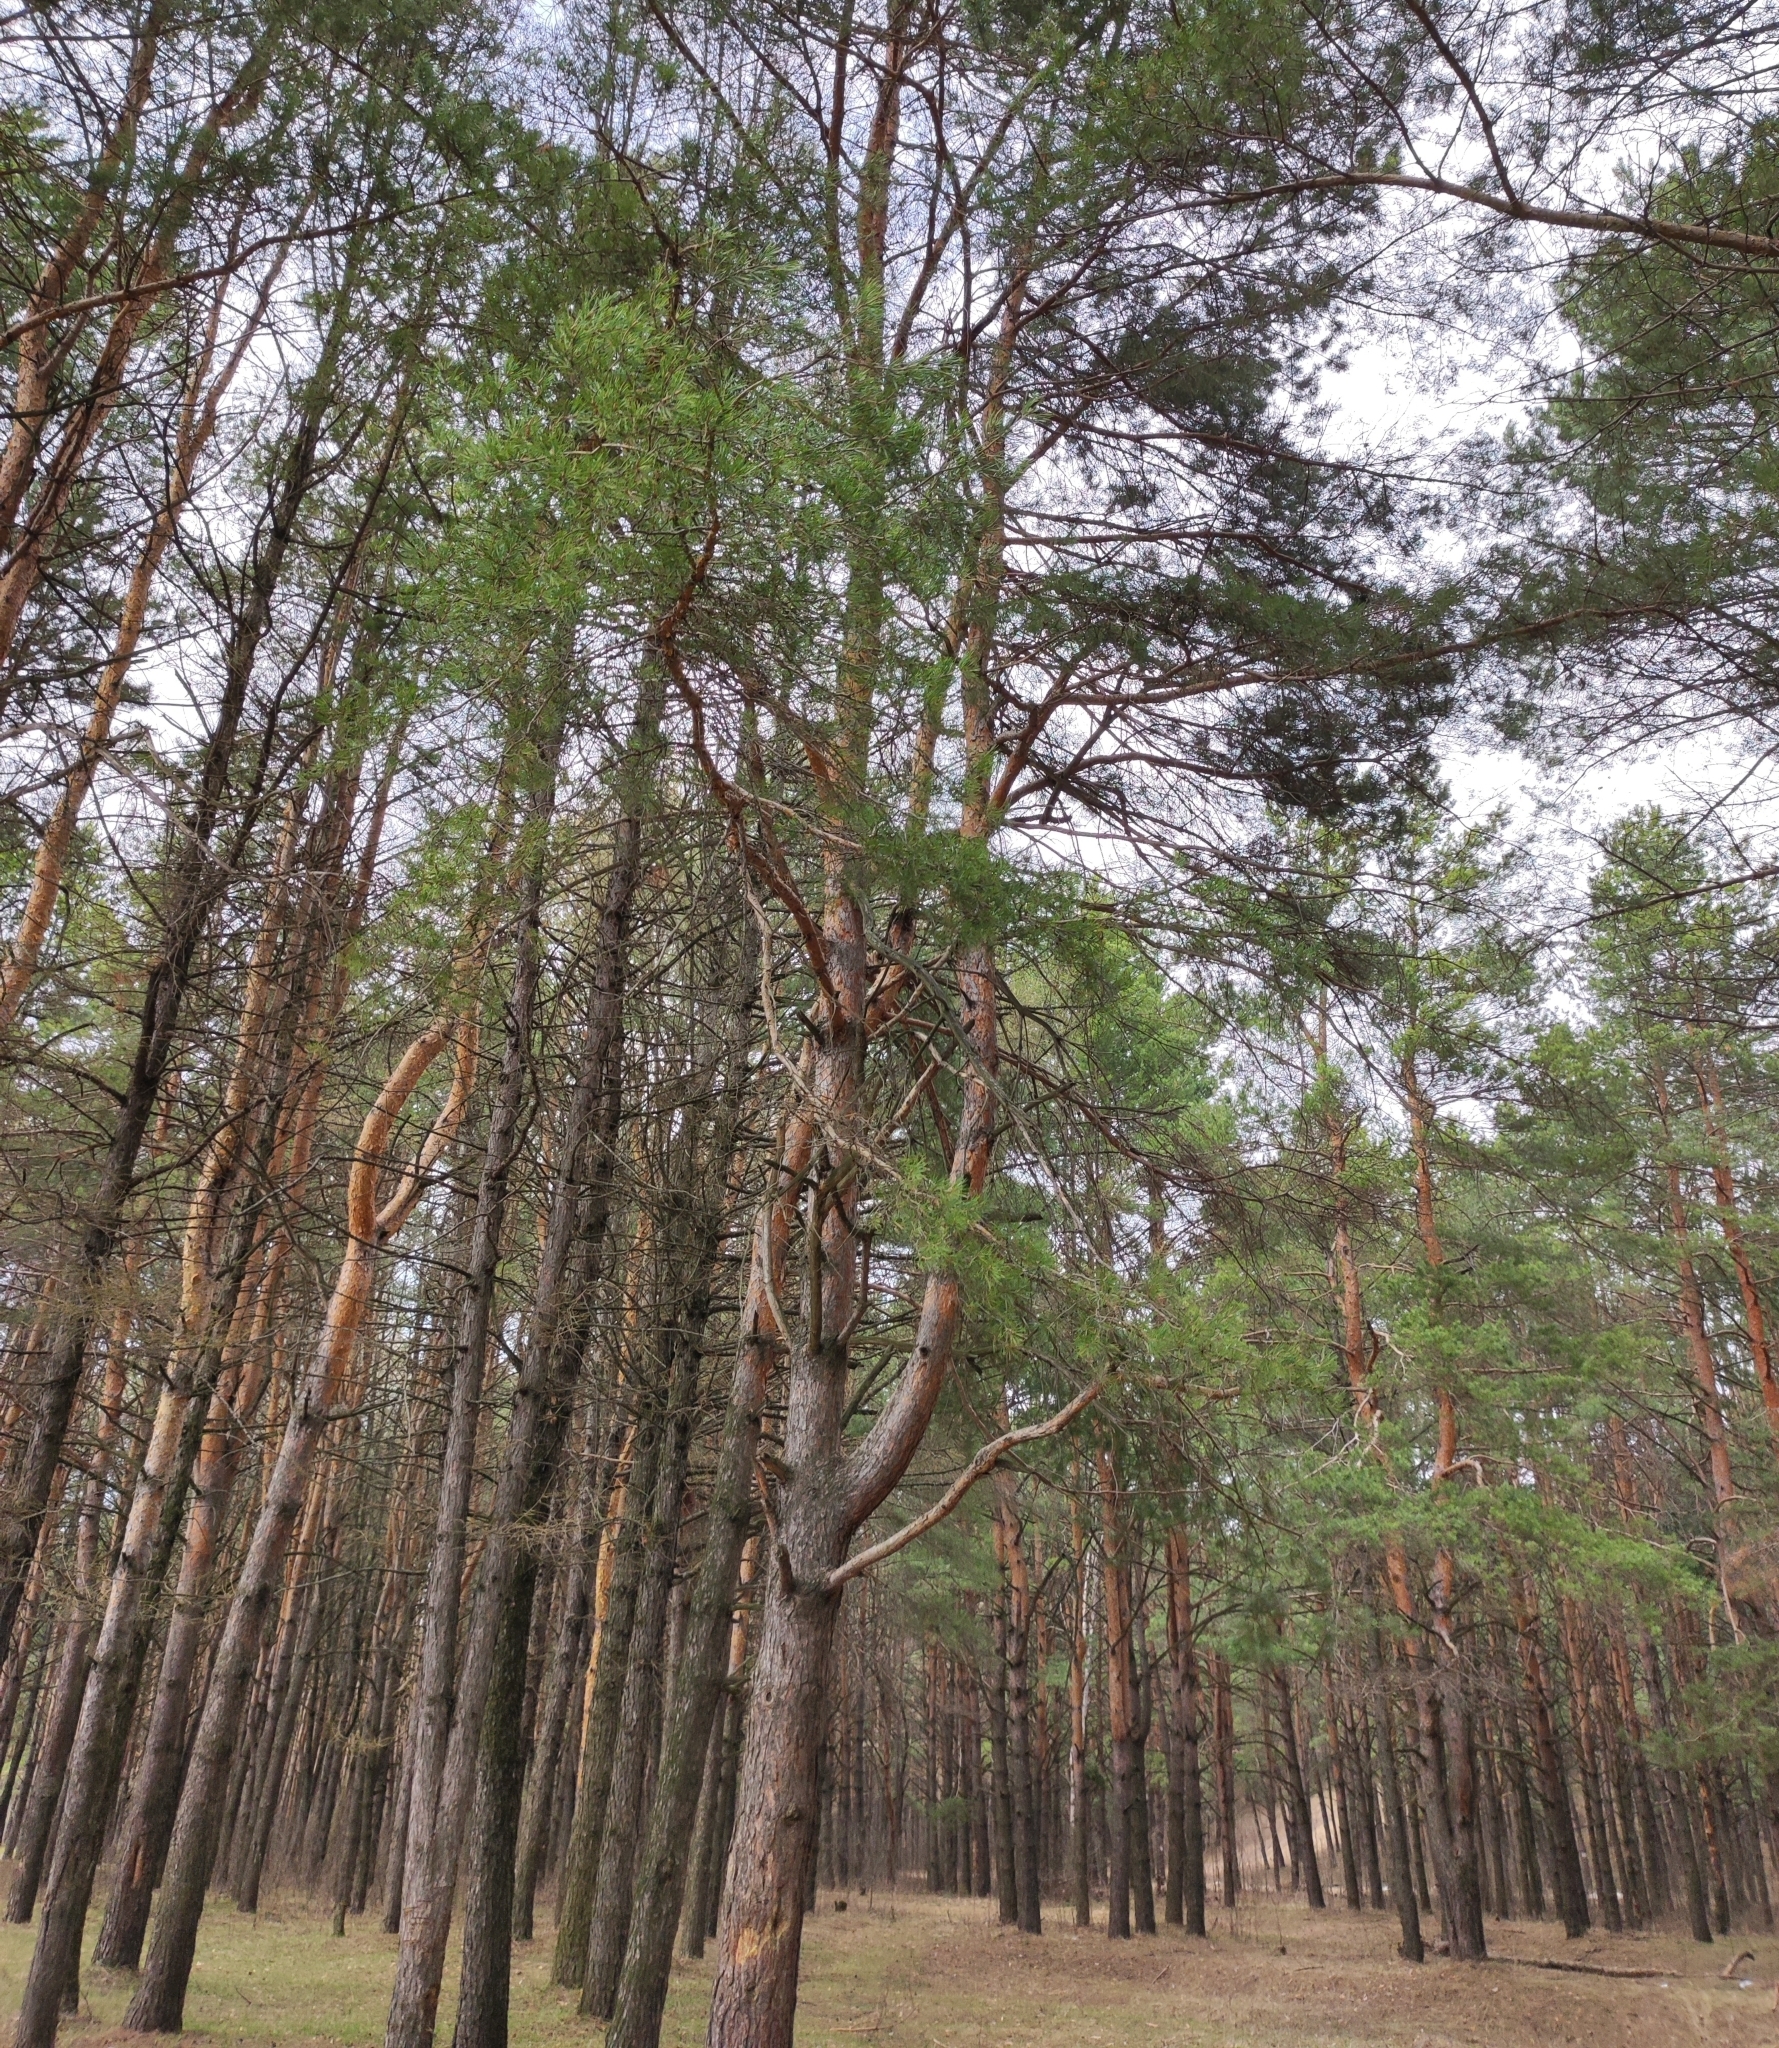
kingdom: Plantae
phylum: Tracheophyta
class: Pinopsida
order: Pinales
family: Pinaceae
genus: Pinus
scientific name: Pinus sylvestris
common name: Scots pine
